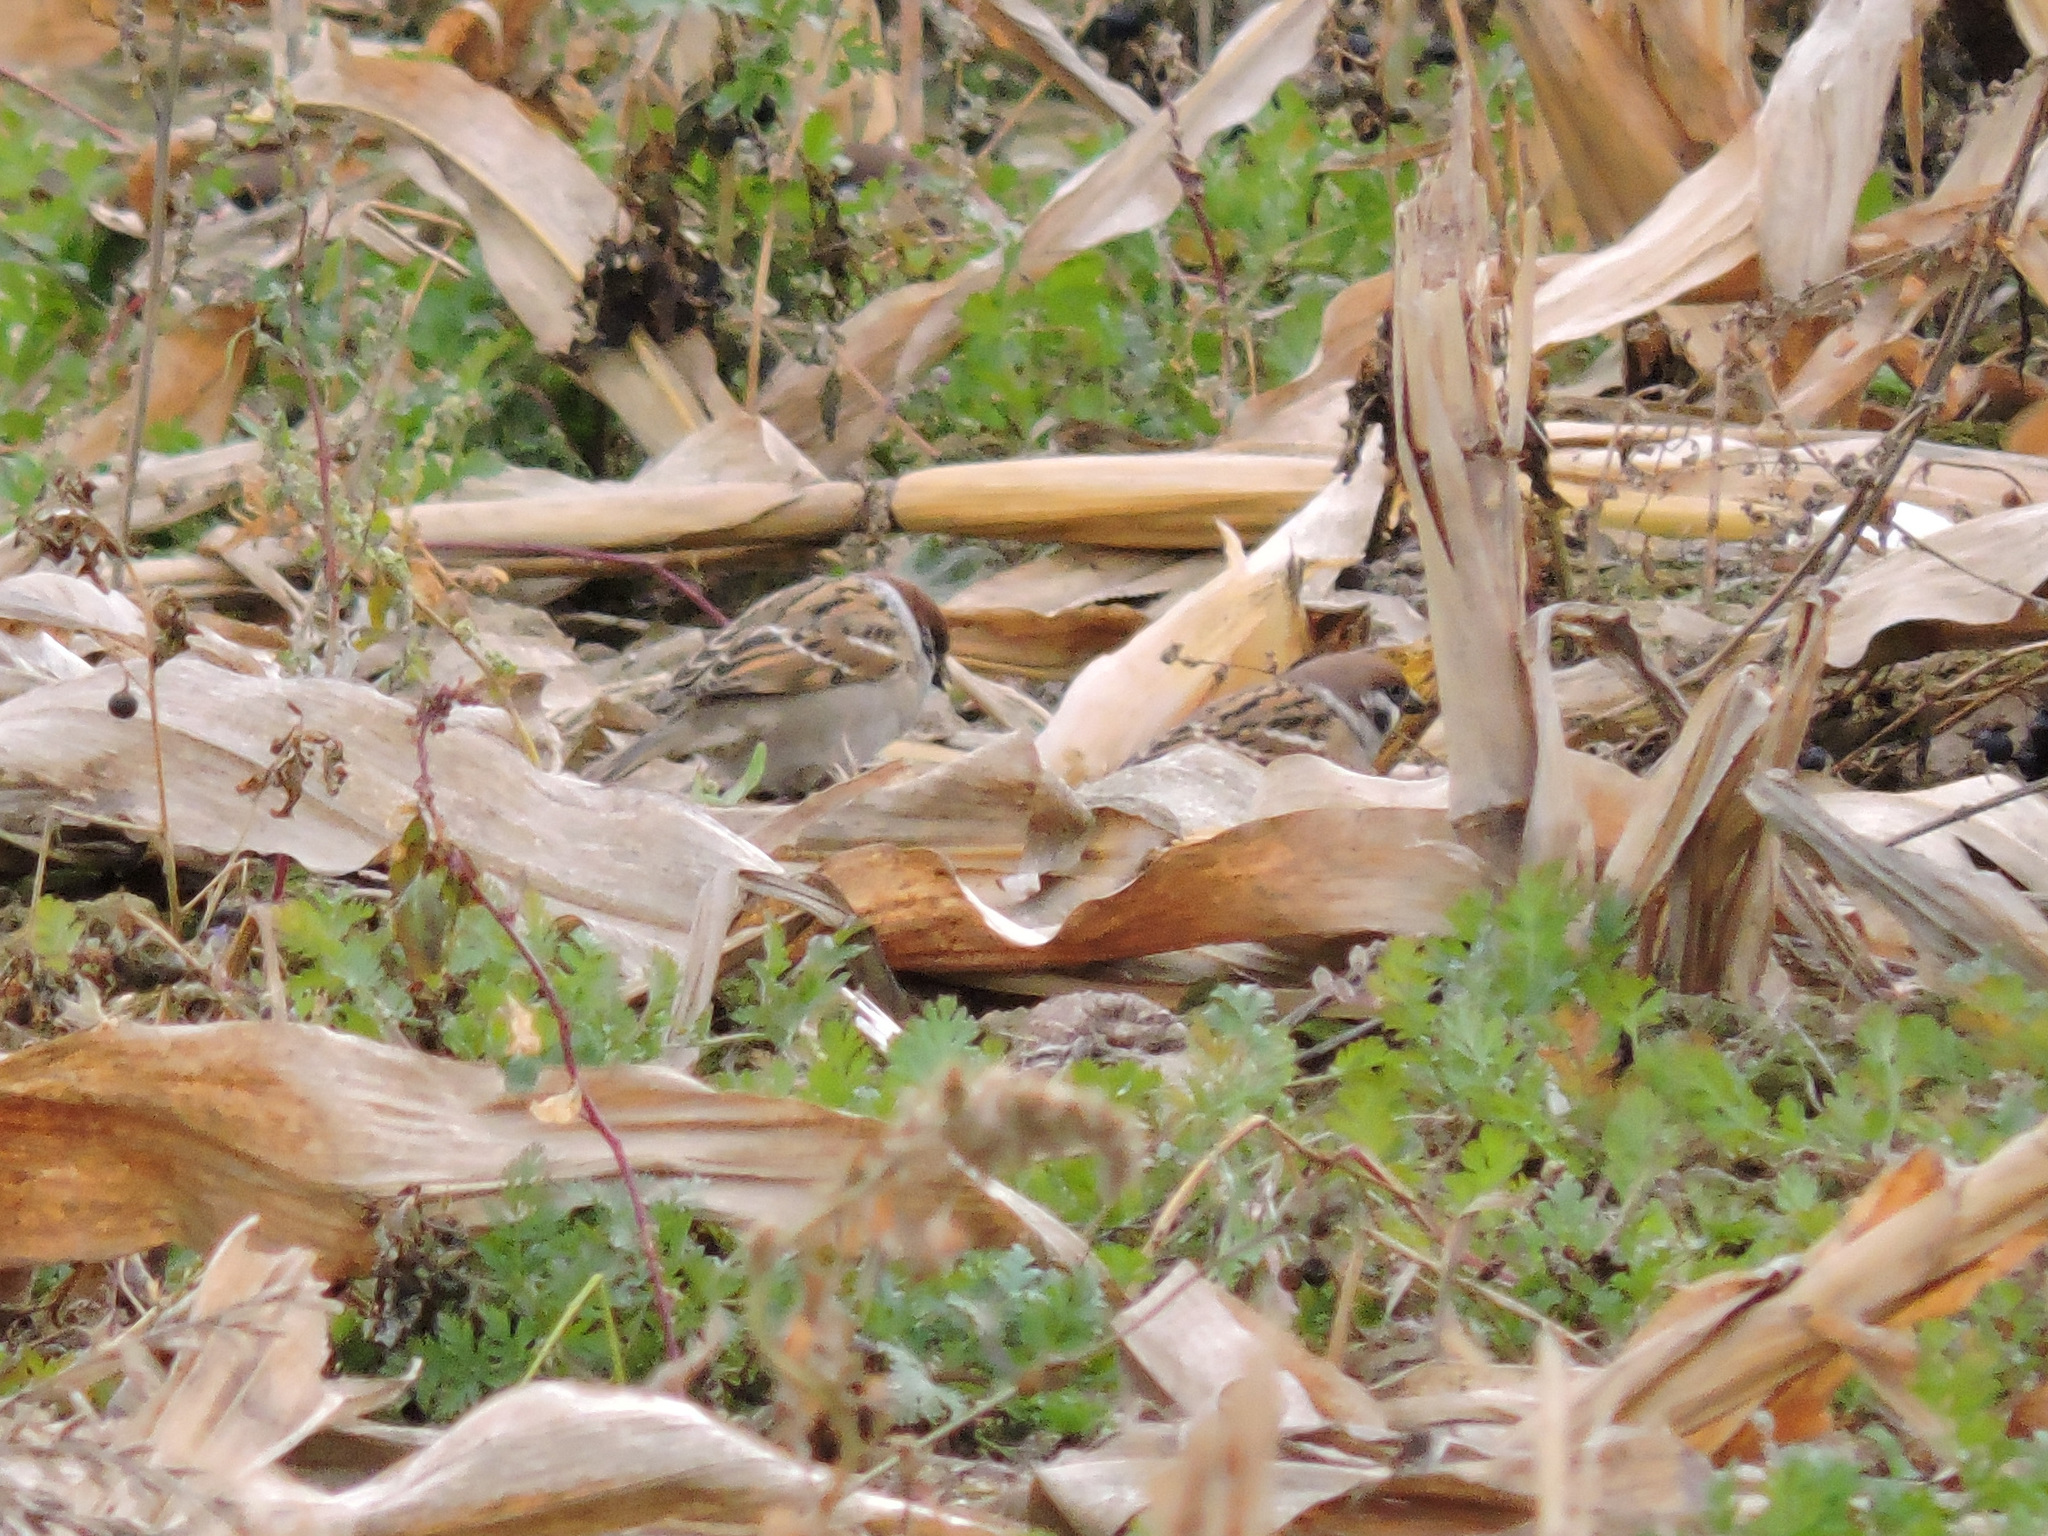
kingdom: Animalia
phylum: Chordata
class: Aves
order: Passeriformes
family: Passeridae
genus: Passer
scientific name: Passer montanus
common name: Eurasian tree sparrow
